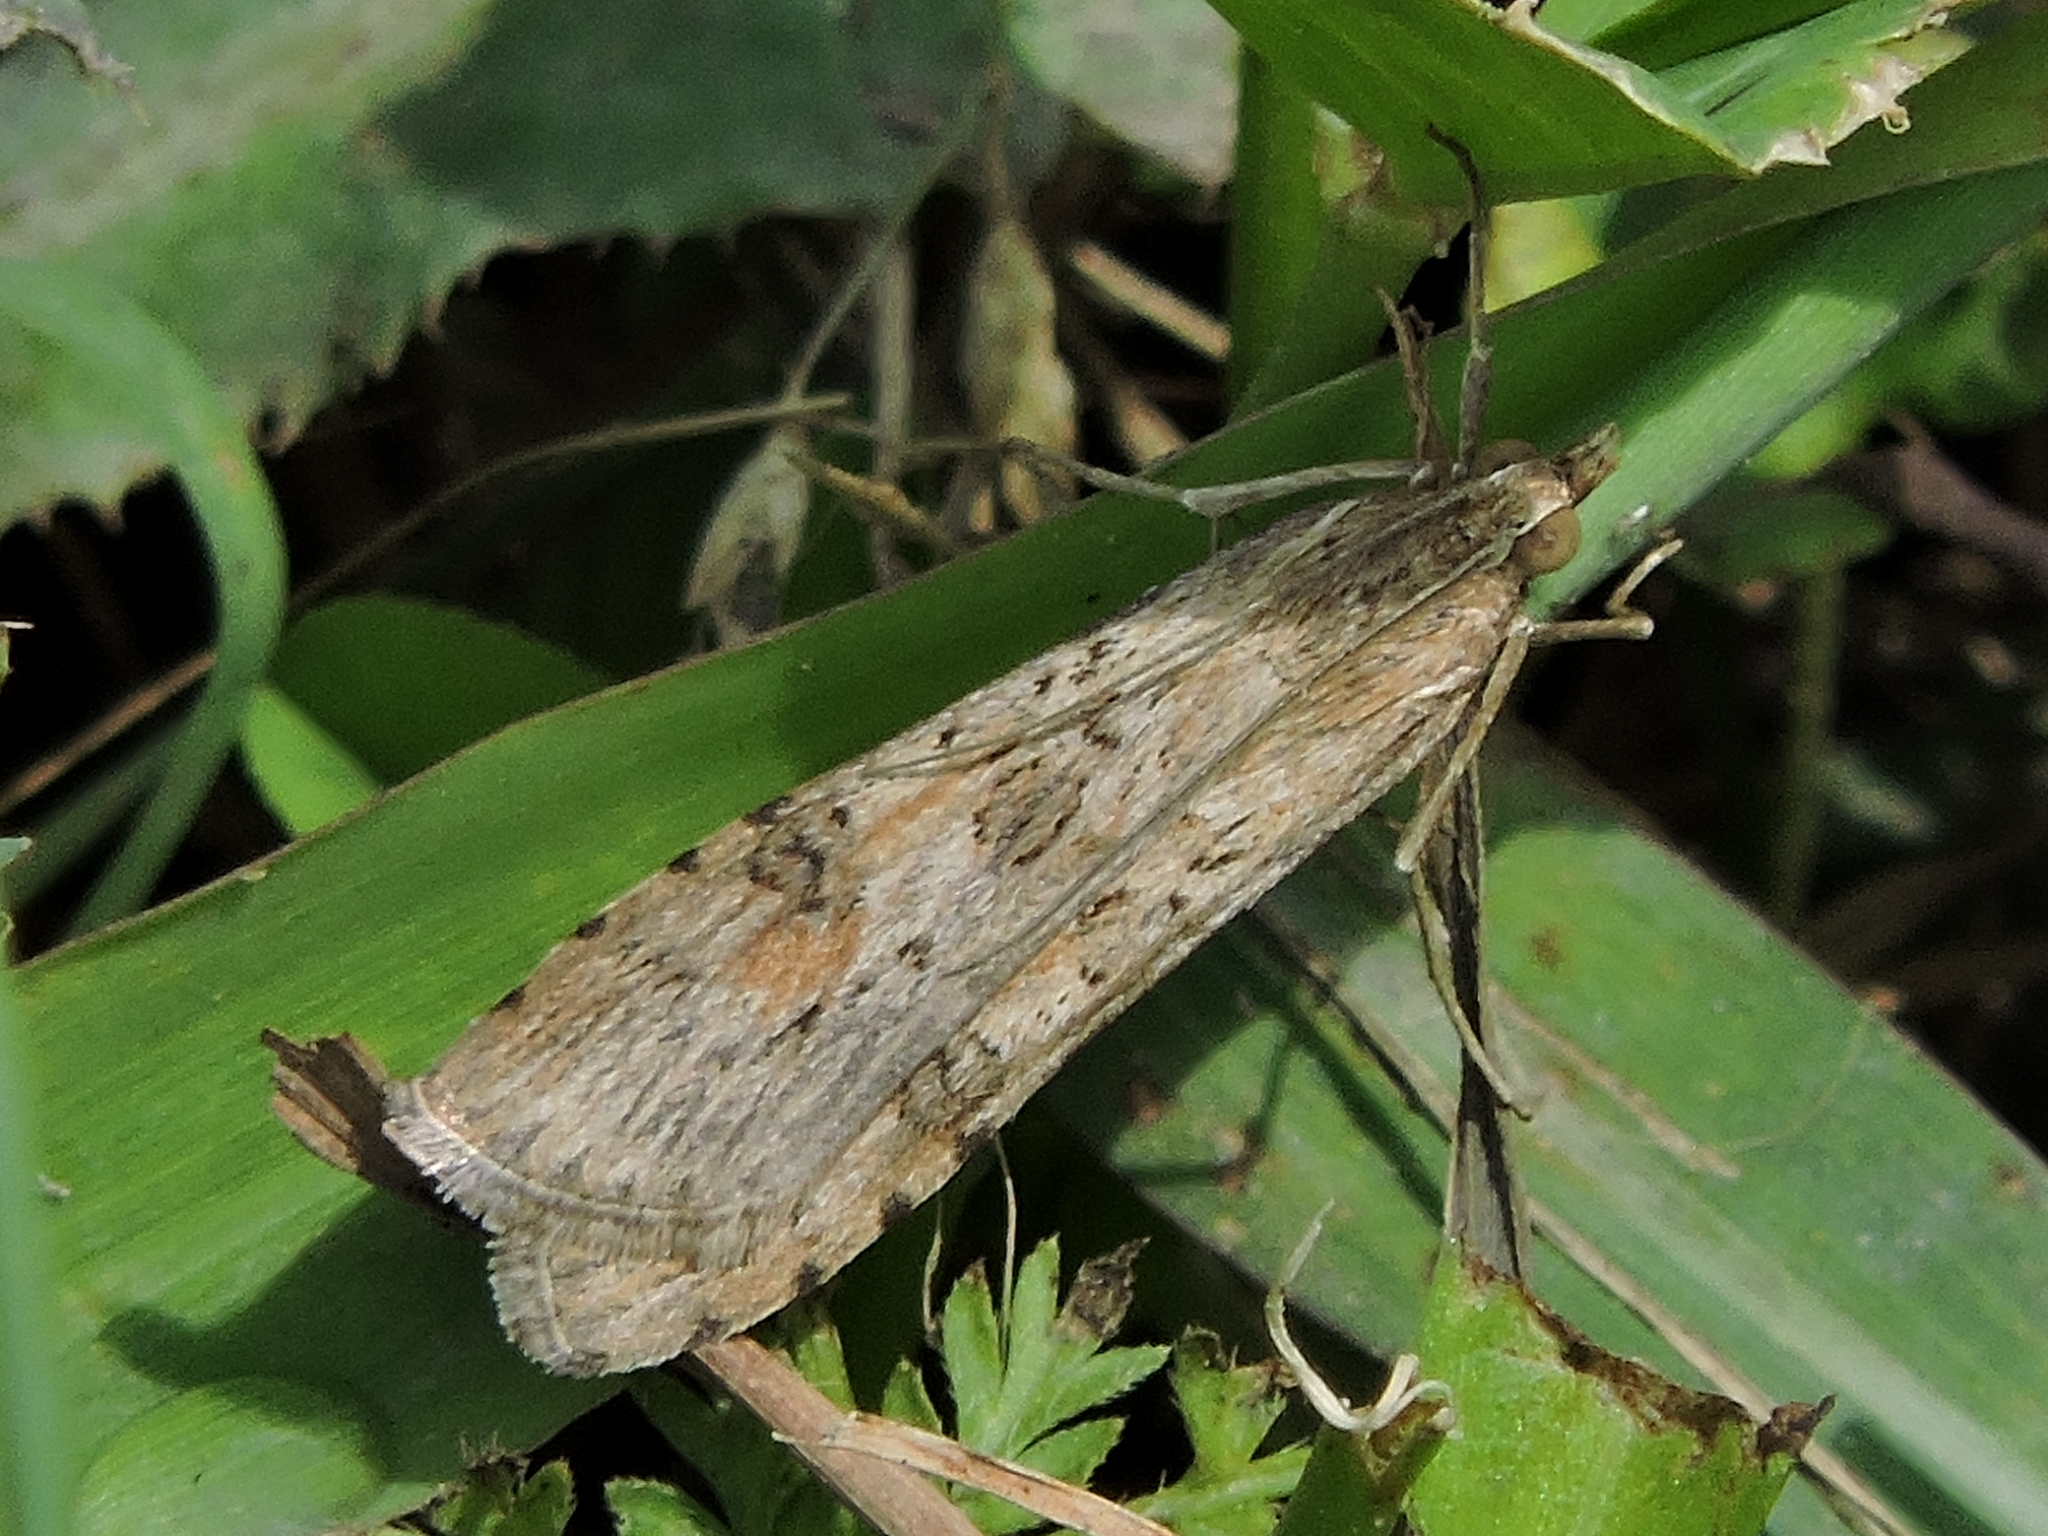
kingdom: Animalia
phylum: Arthropoda
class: Insecta
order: Lepidoptera
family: Crambidae
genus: Nomophila
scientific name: Nomophila nearctica
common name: American rush veneer
